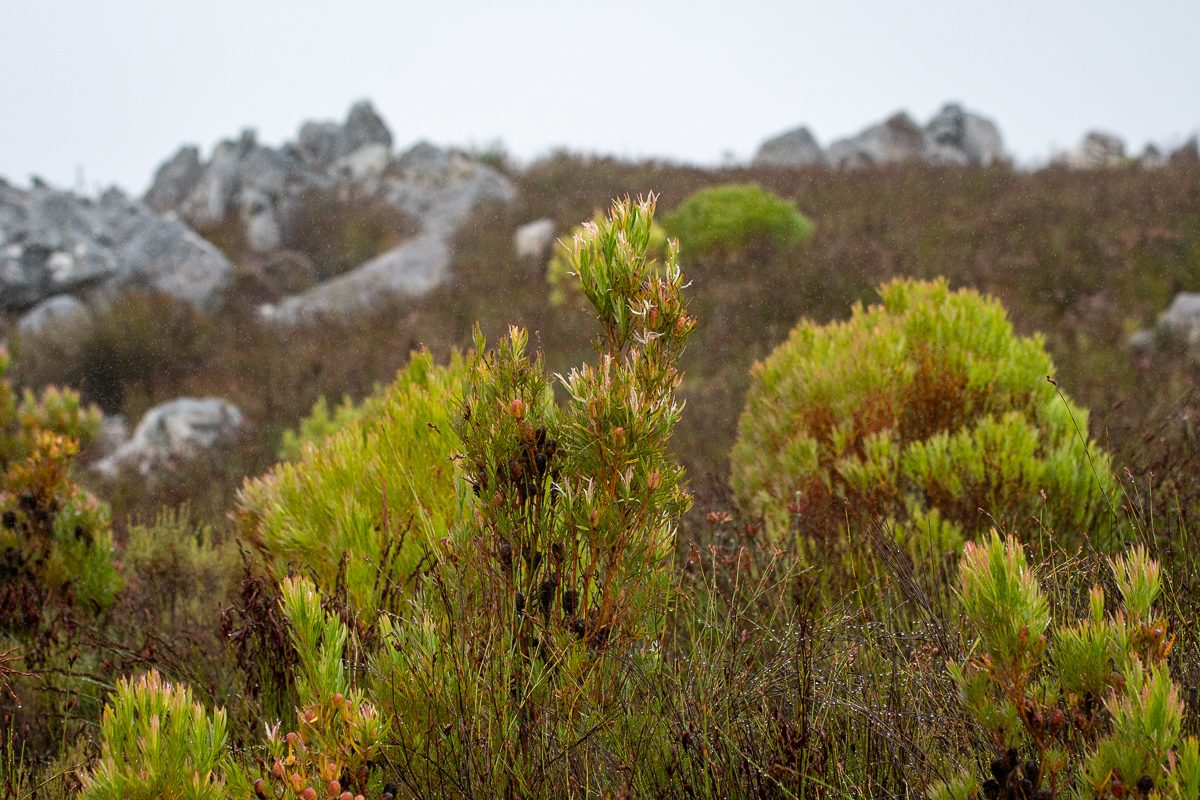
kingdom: Plantae
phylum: Tracheophyta
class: Magnoliopsida
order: Proteales
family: Proteaceae
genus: Leucadendron
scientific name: Leucadendron xanthoconus
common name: Sickle-leaf conebush
